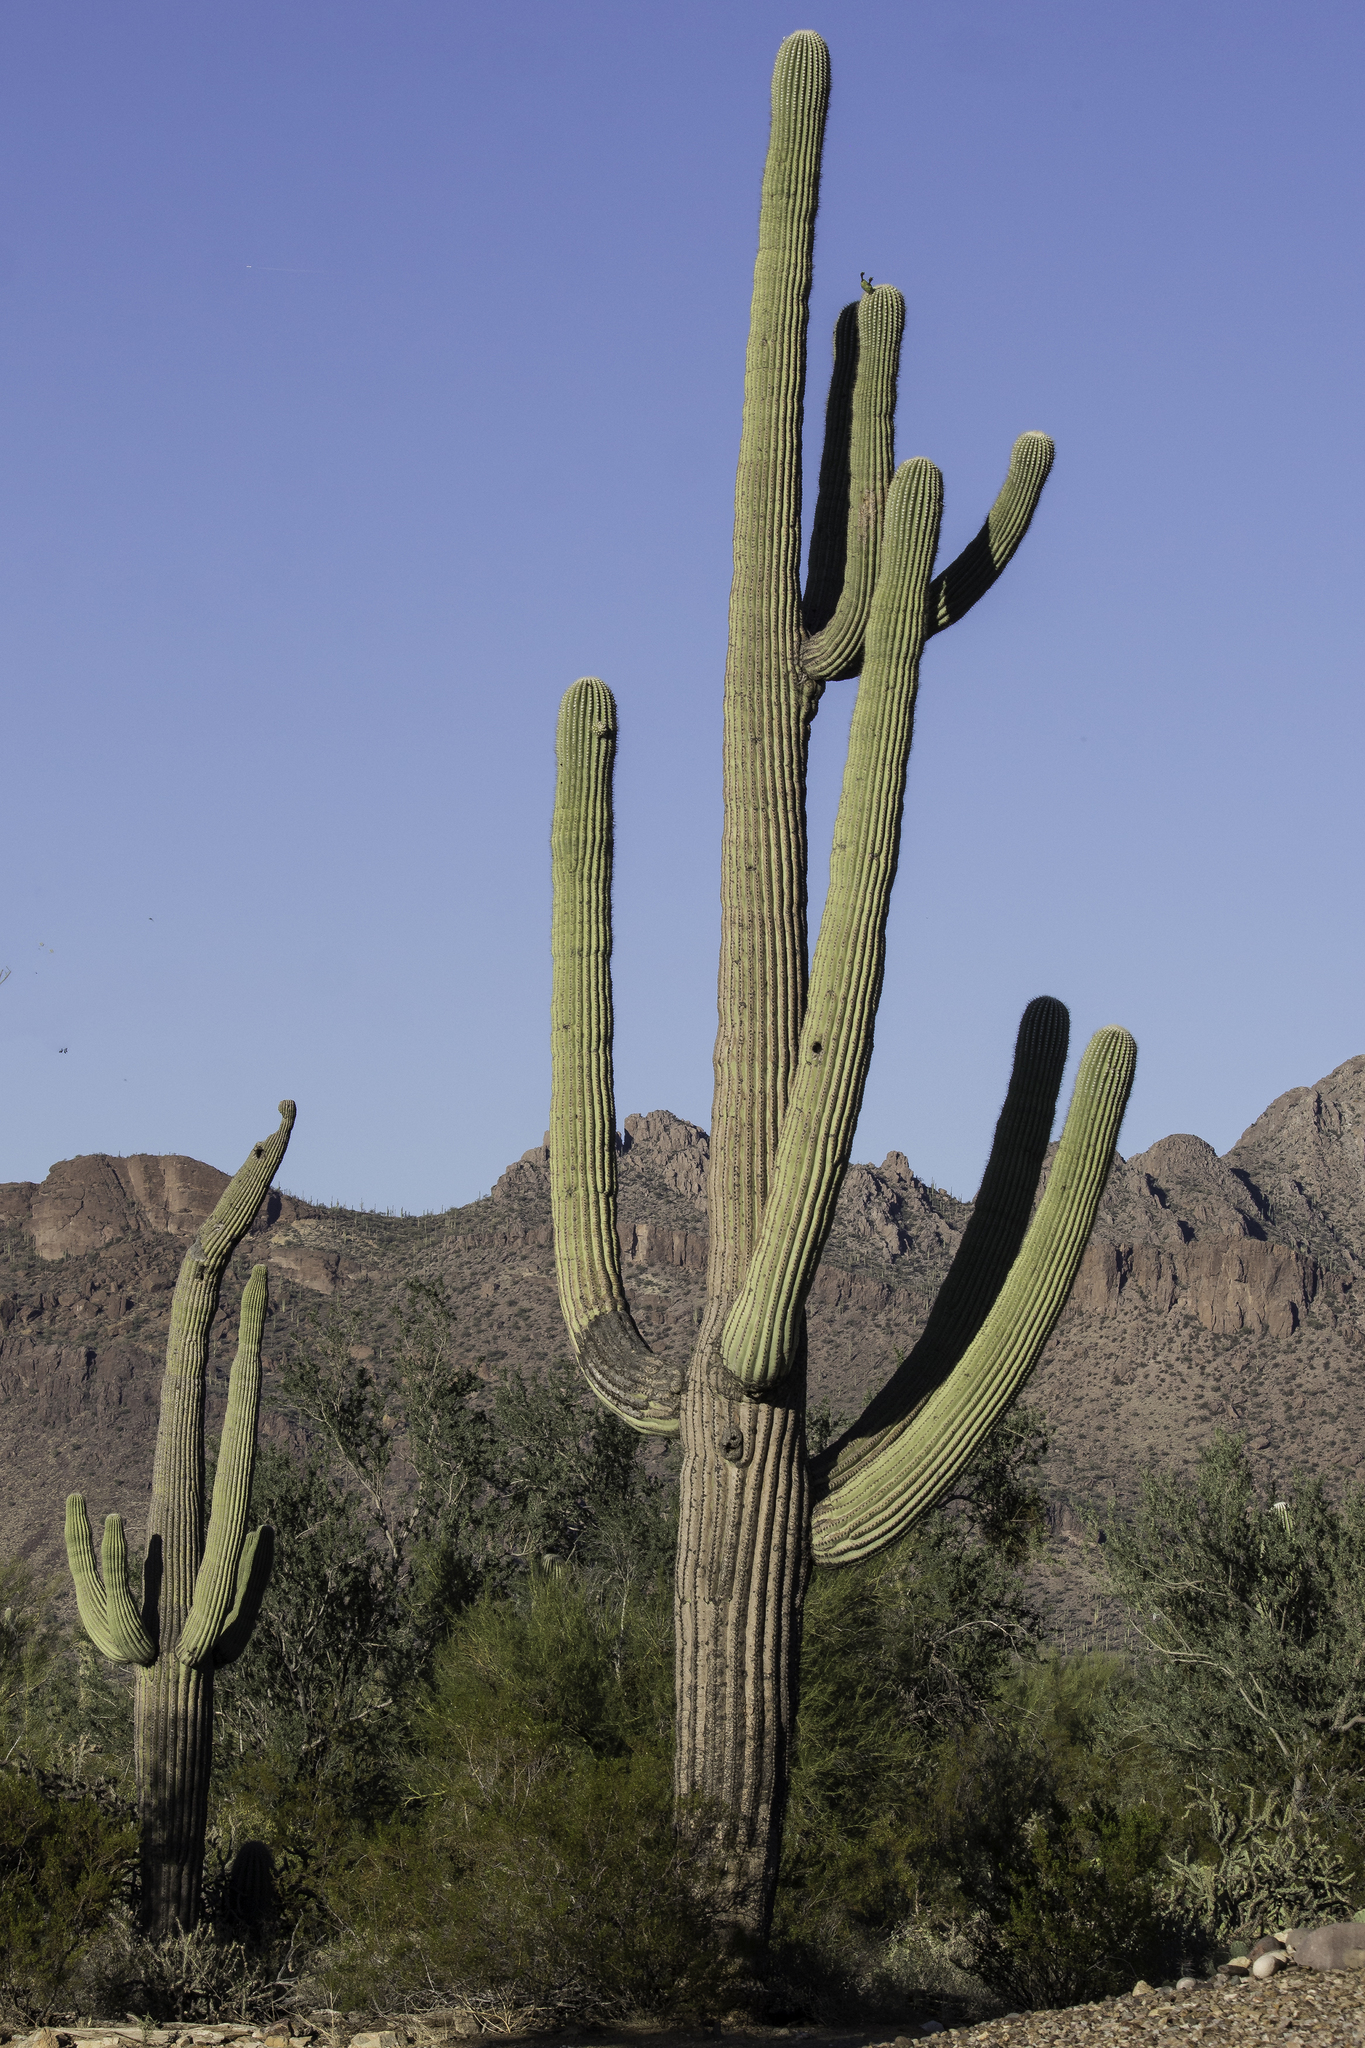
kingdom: Plantae
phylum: Tracheophyta
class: Magnoliopsida
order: Caryophyllales
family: Cactaceae
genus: Carnegiea
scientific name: Carnegiea gigantea
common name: Saguaro
